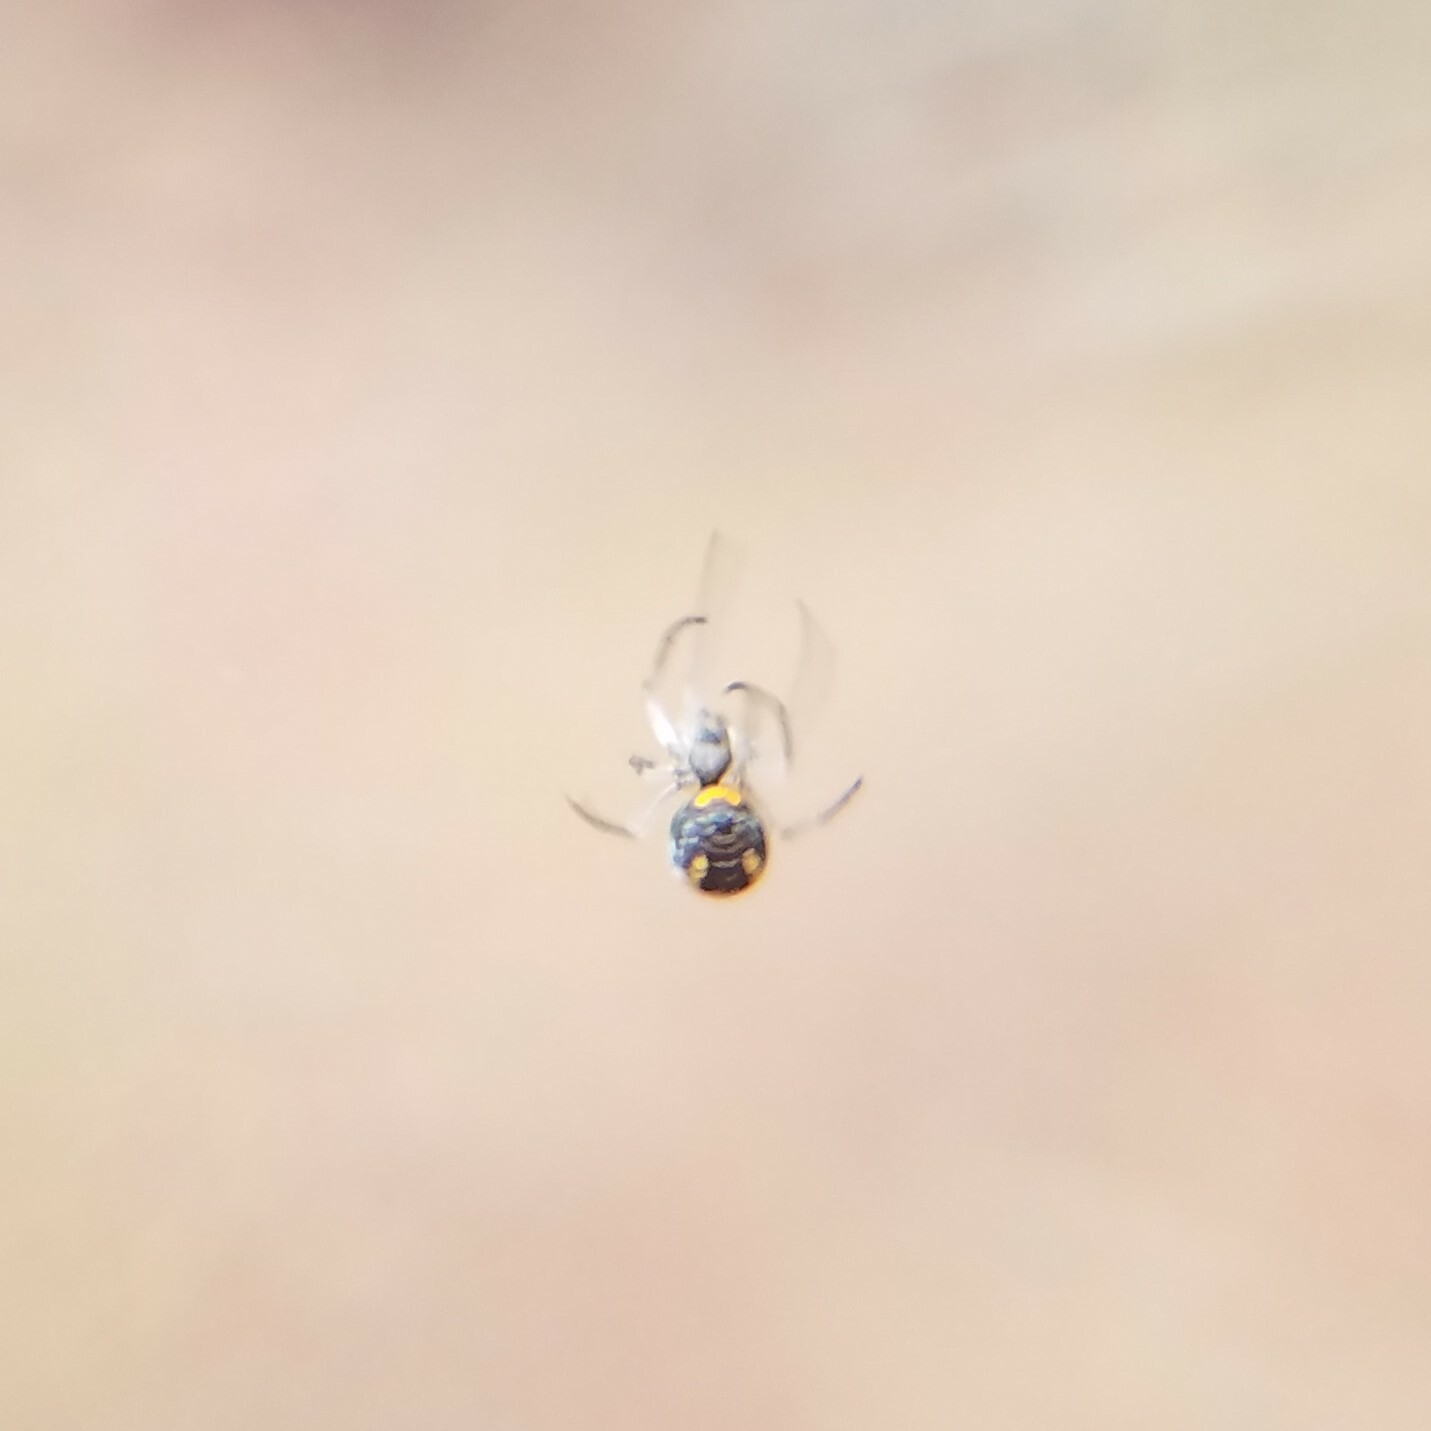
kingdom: Animalia
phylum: Arthropoda
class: Arachnida
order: Araneae
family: Tetragnathidae
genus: Leucauge
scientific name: Leucauge venusta
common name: Longjawed orb weavers
